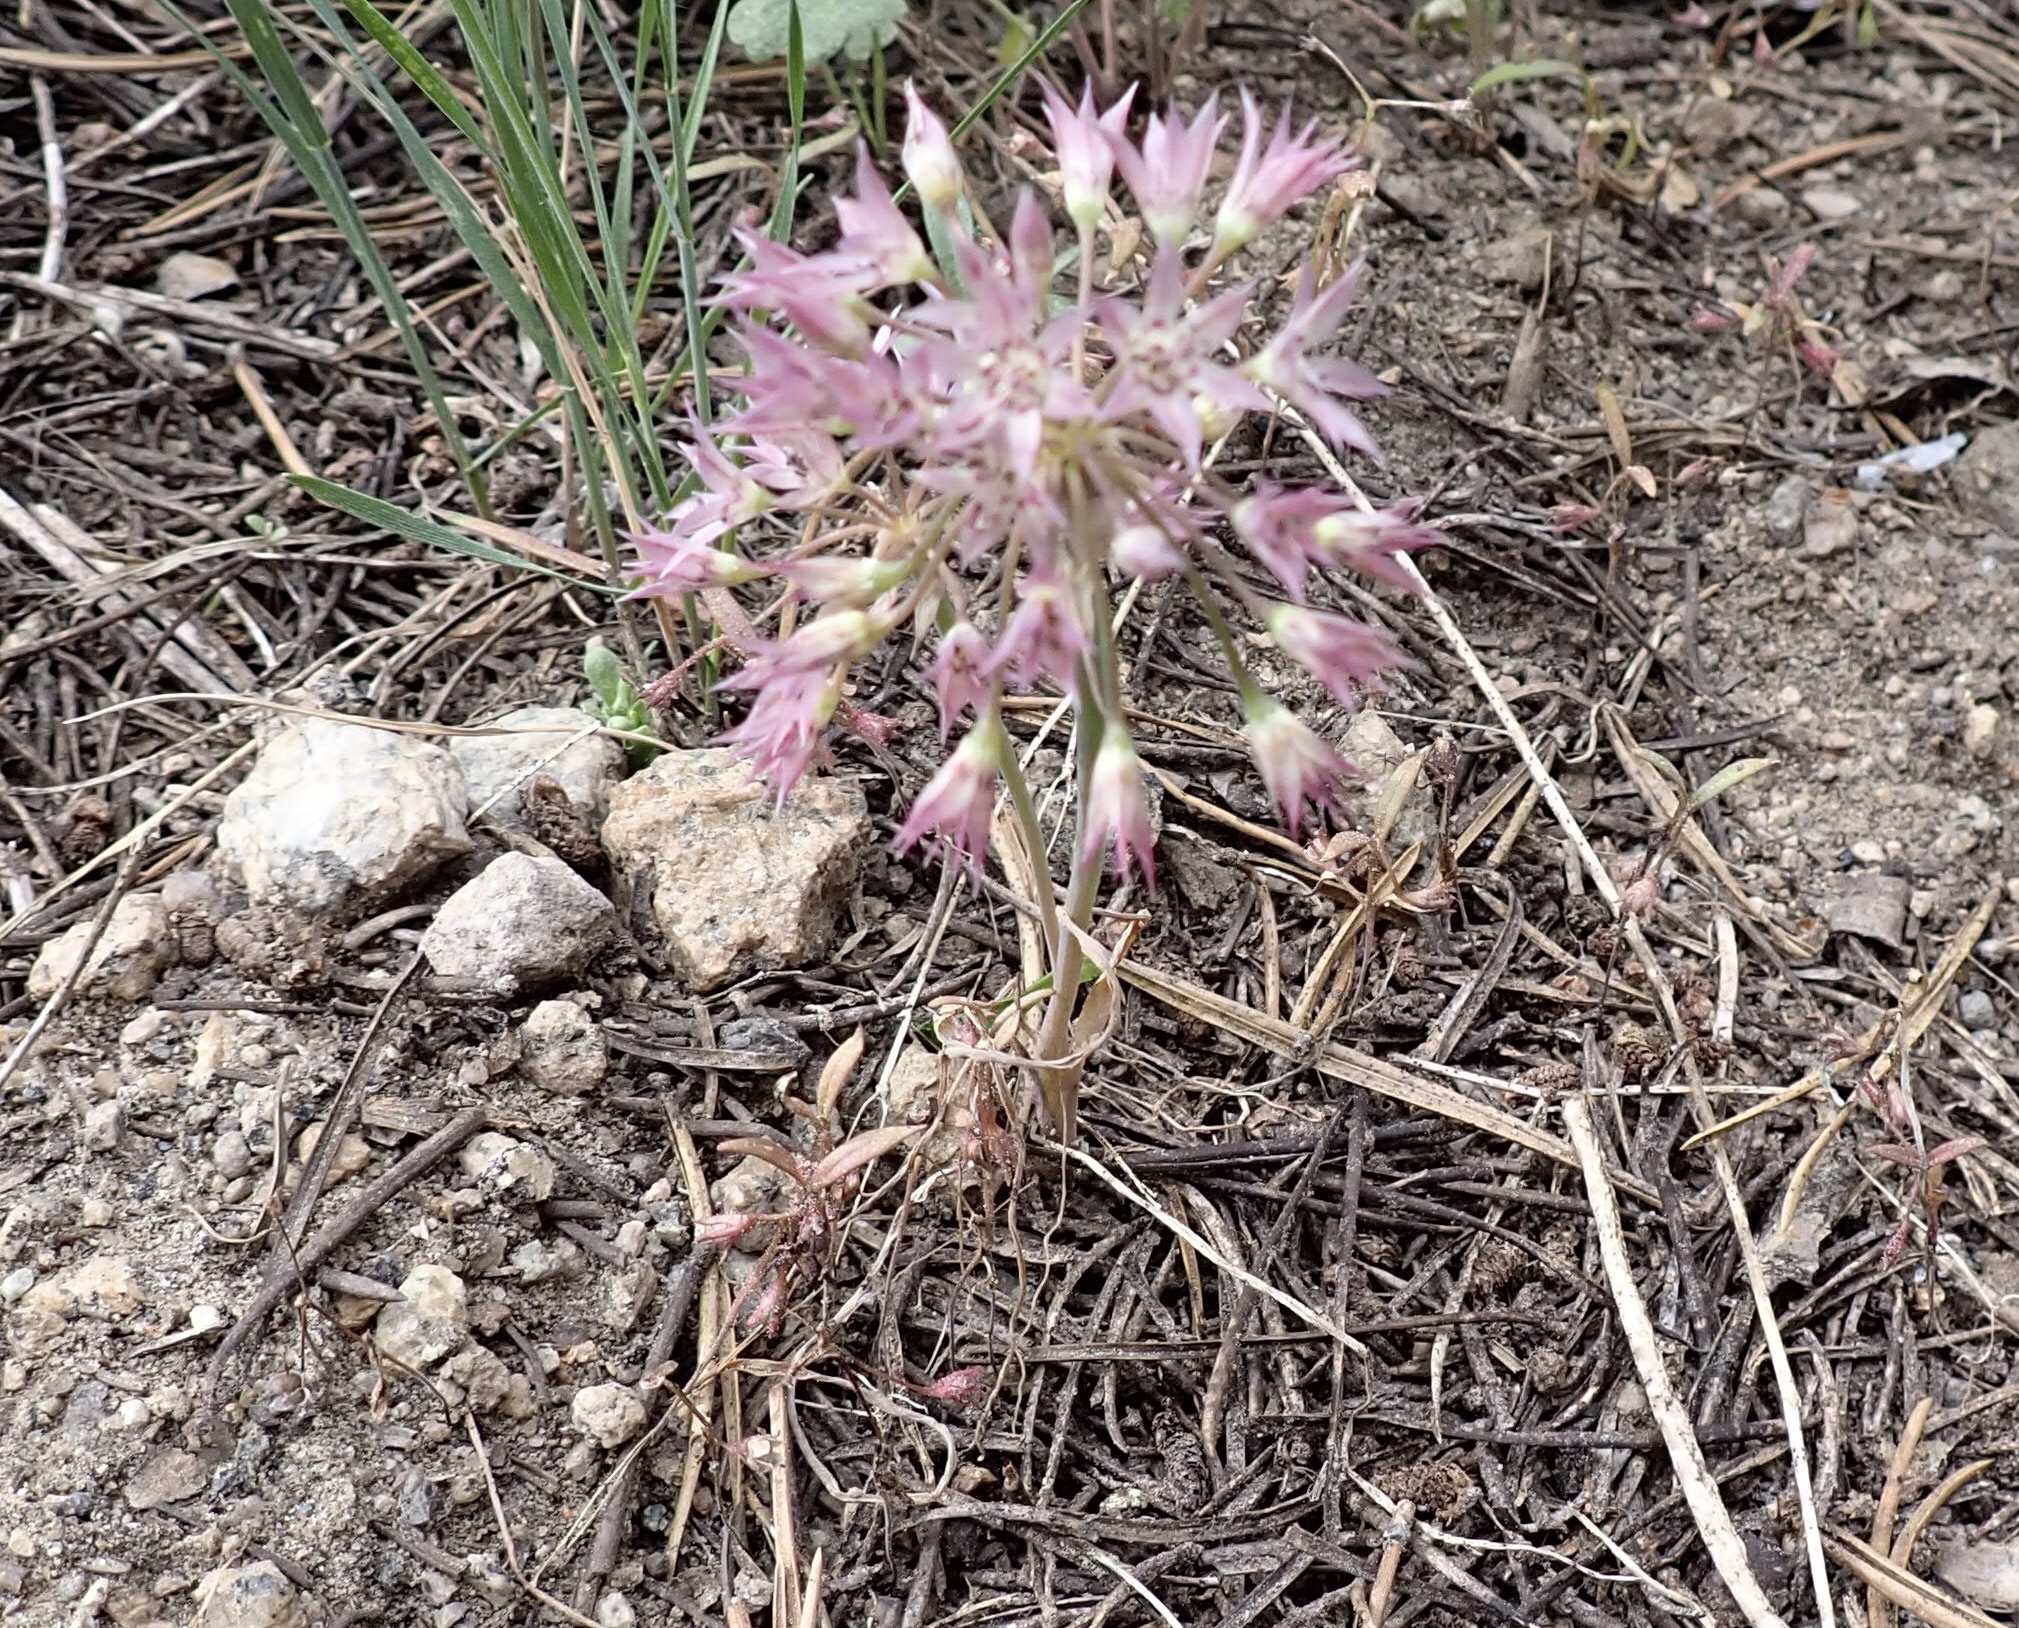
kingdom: Plantae
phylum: Tracheophyta
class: Liliopsida
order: Asparagales
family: Amaryllidaceae
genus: Allium
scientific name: Allium campanulatum
